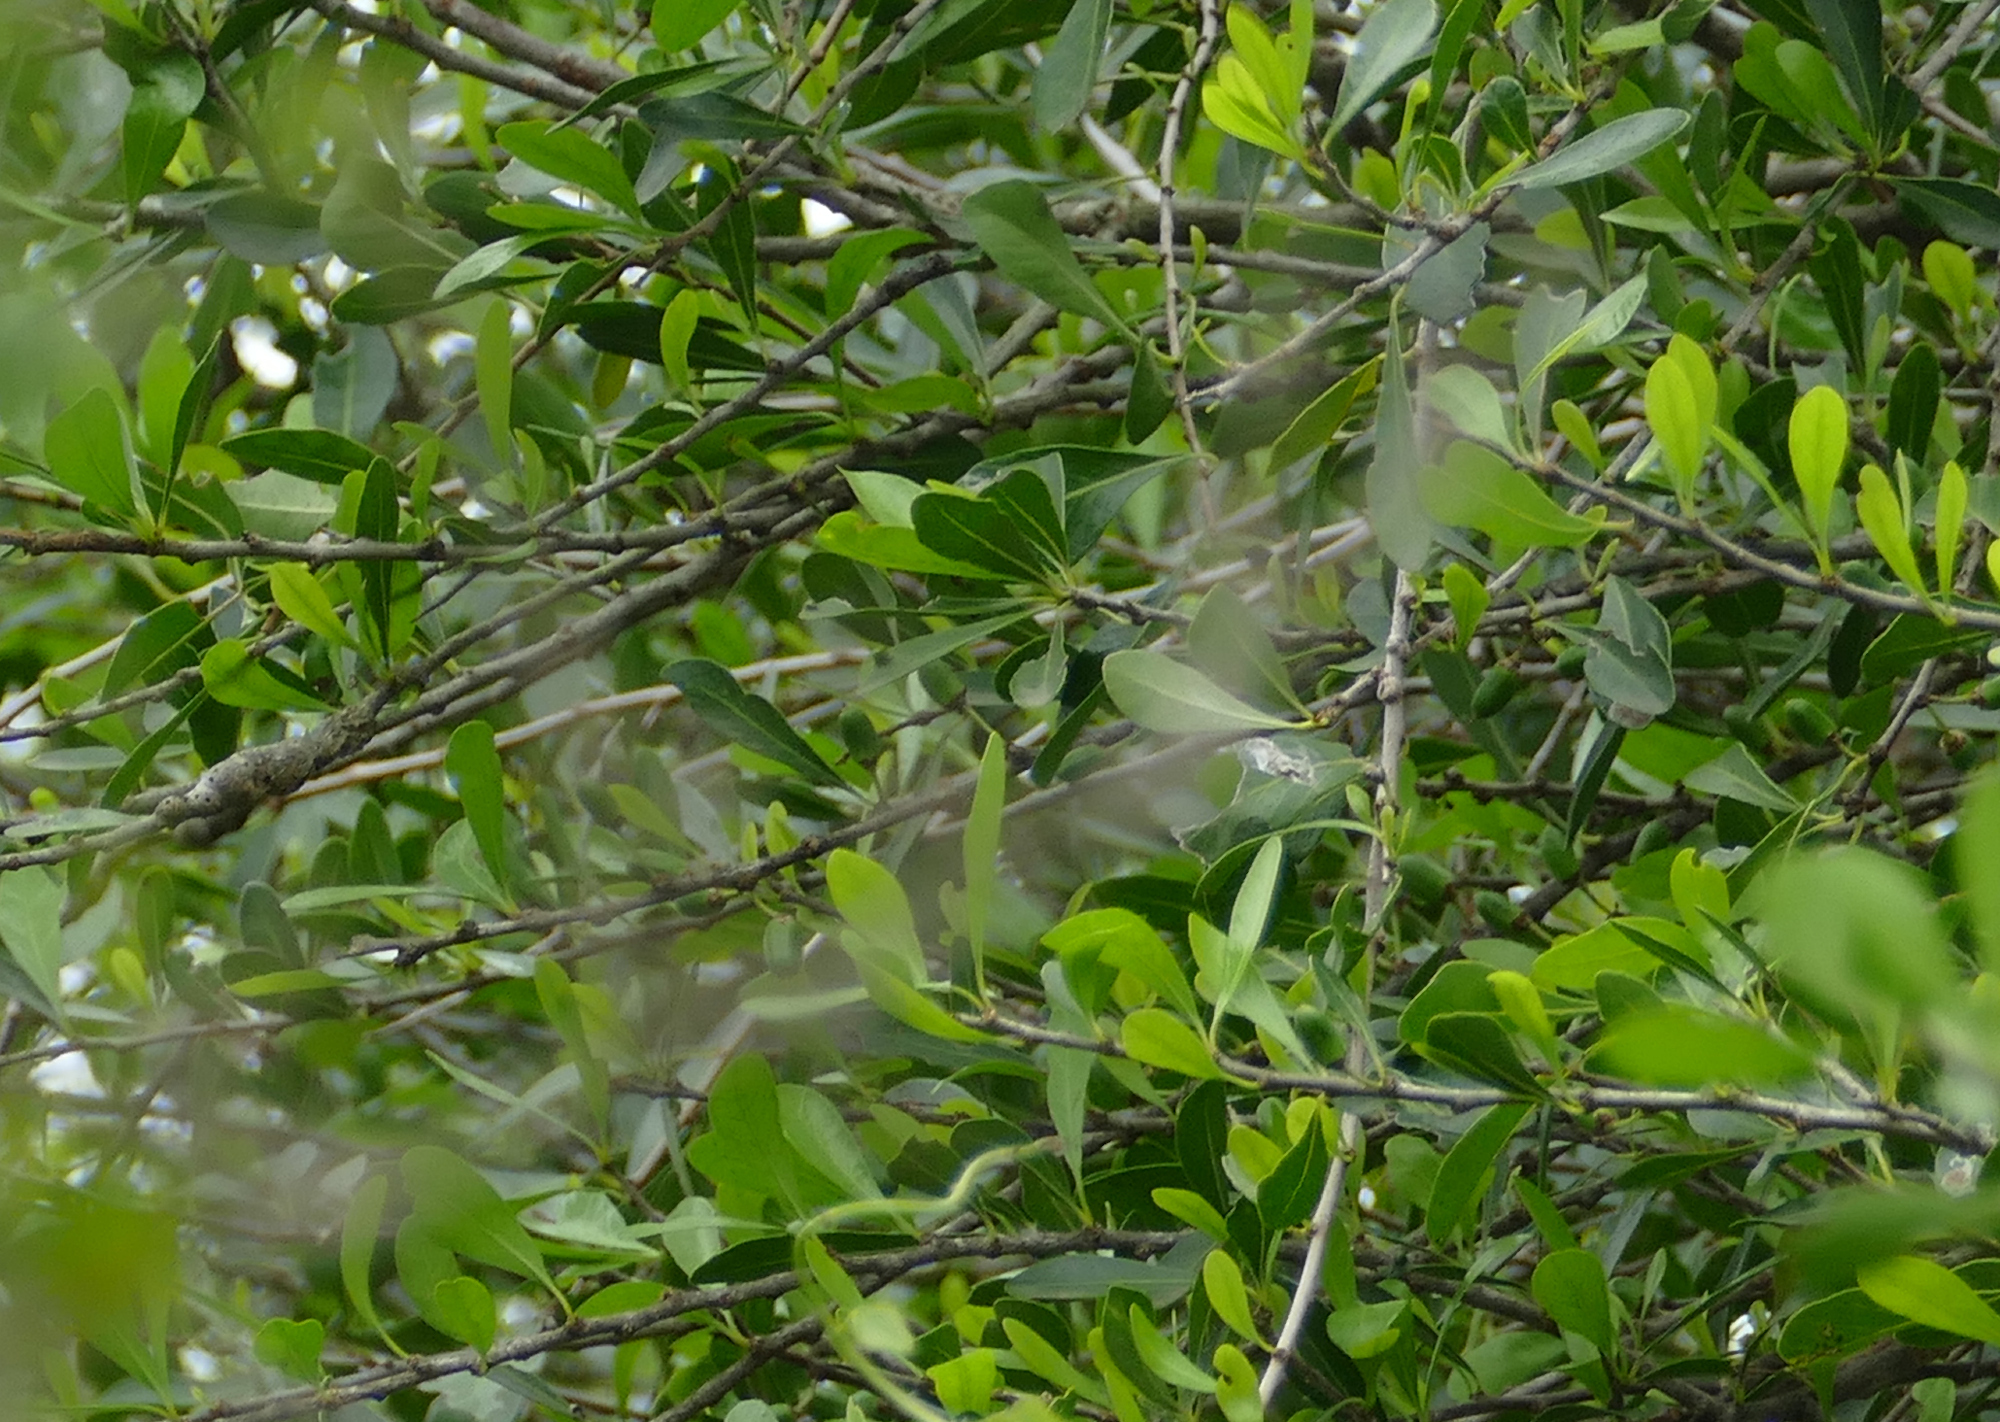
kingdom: Plantae
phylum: Tracheophyta
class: Magnoliopsida
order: Ericales
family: Sapotaceae
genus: Sideroxylon
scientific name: Sideroxylon celastrinum
